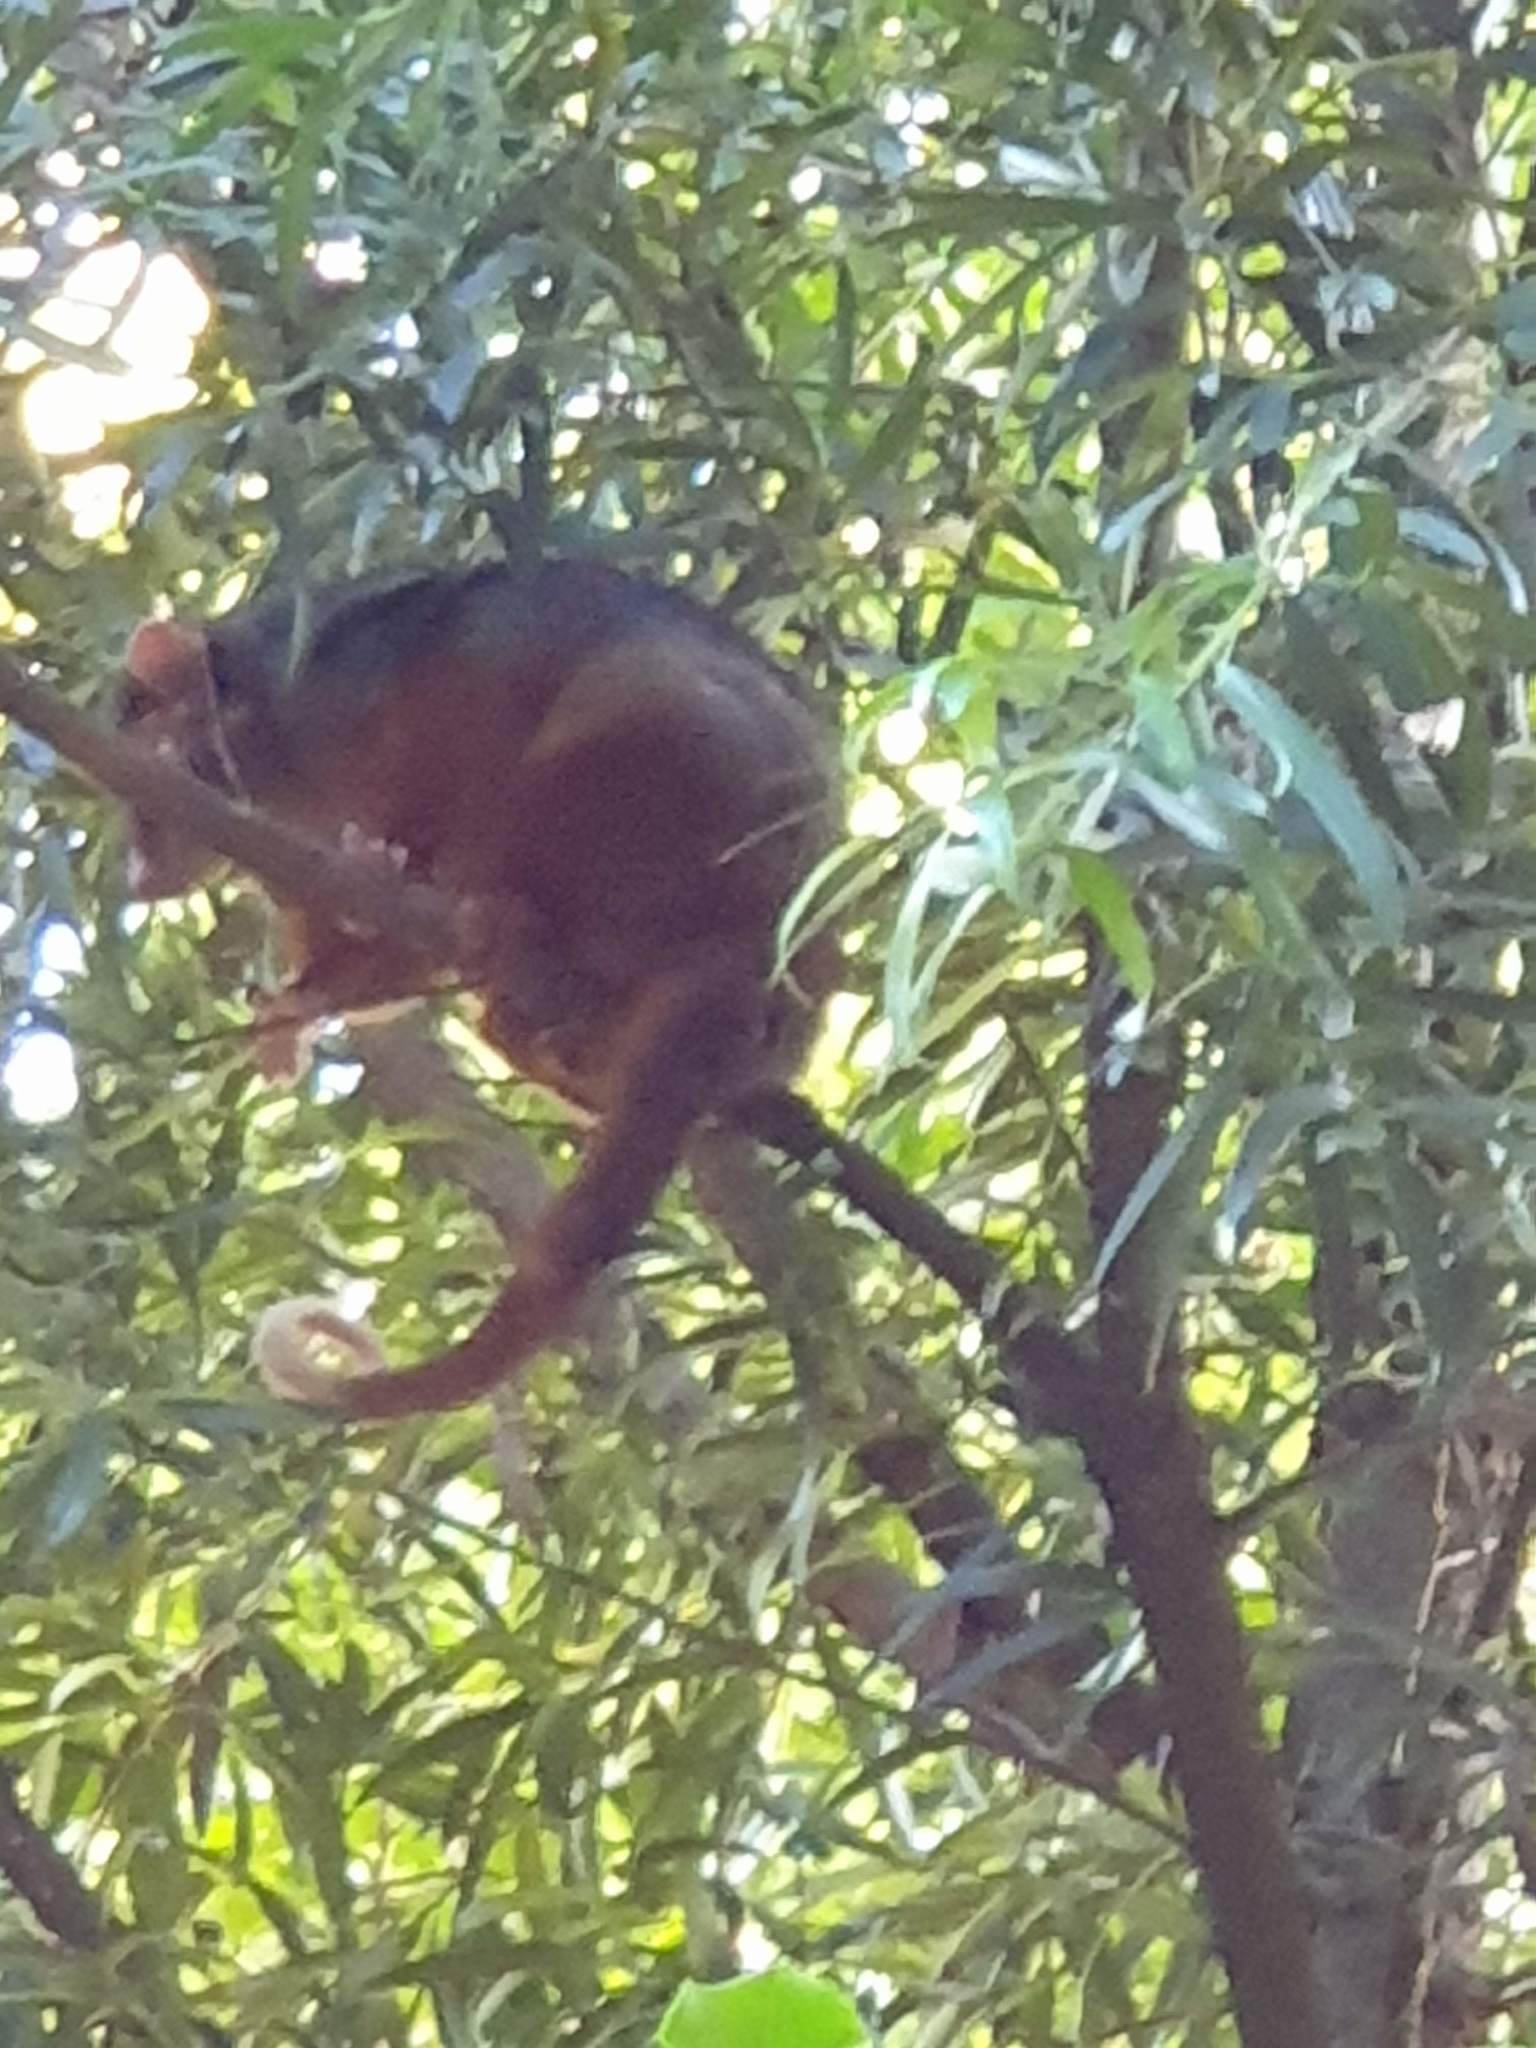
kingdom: Animalia
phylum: Chordata
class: Mammalia
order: Diprotodontia
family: Pseudocheiridae
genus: Pseudocheirus
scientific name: Pseudocheirus peregrinus
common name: Common ringtail possum
